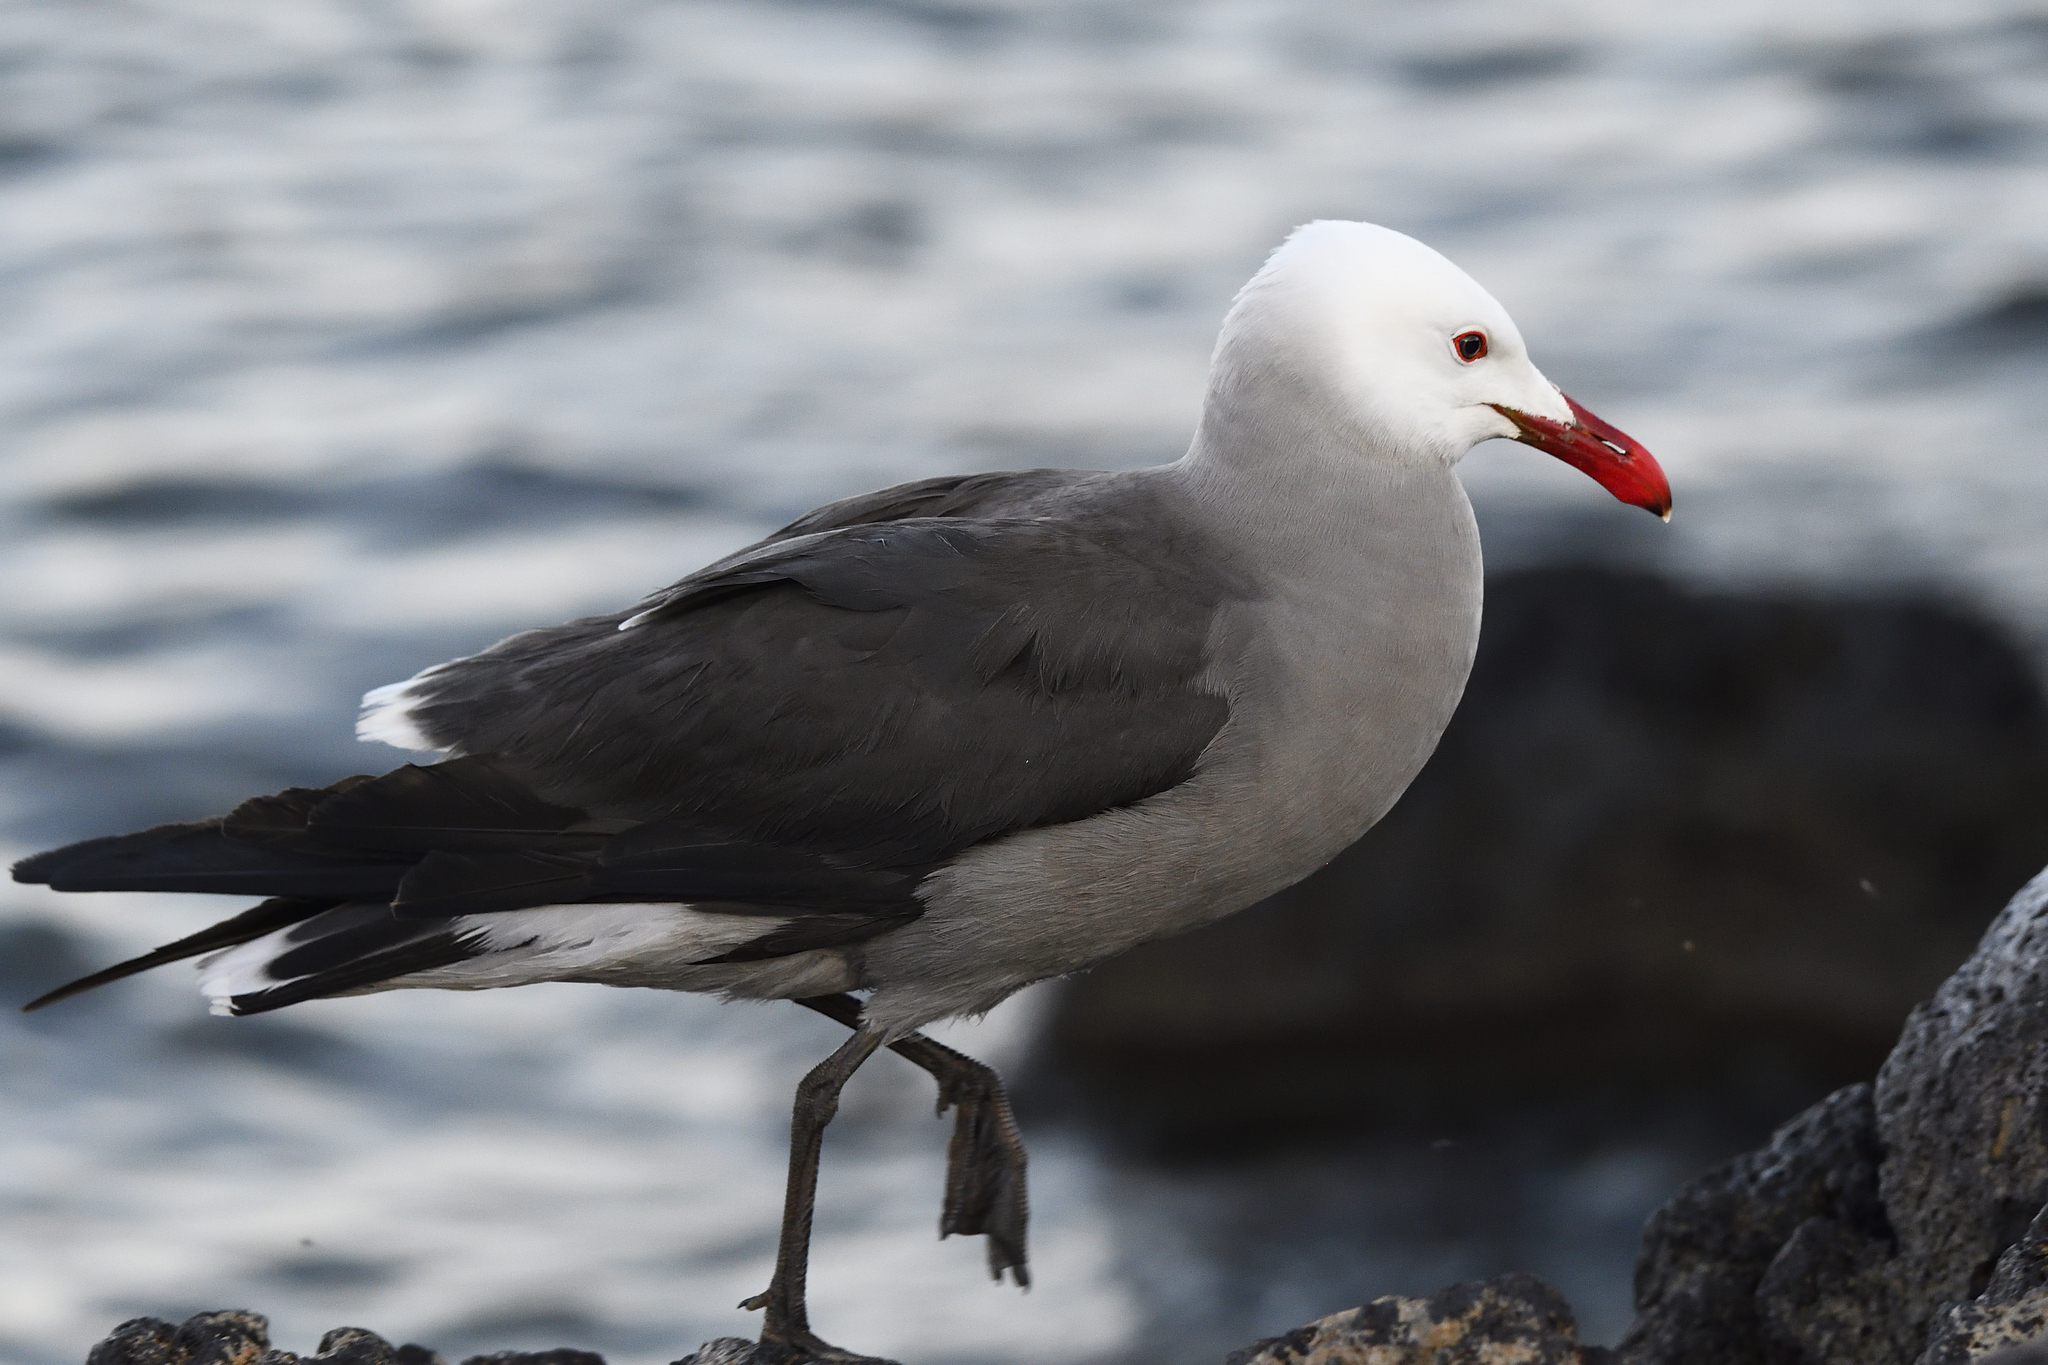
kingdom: Animalia
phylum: Chordata
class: Aves
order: Charadriiformes
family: Laridae
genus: Larus
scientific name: Larus heermanni
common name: Heermann's gull
